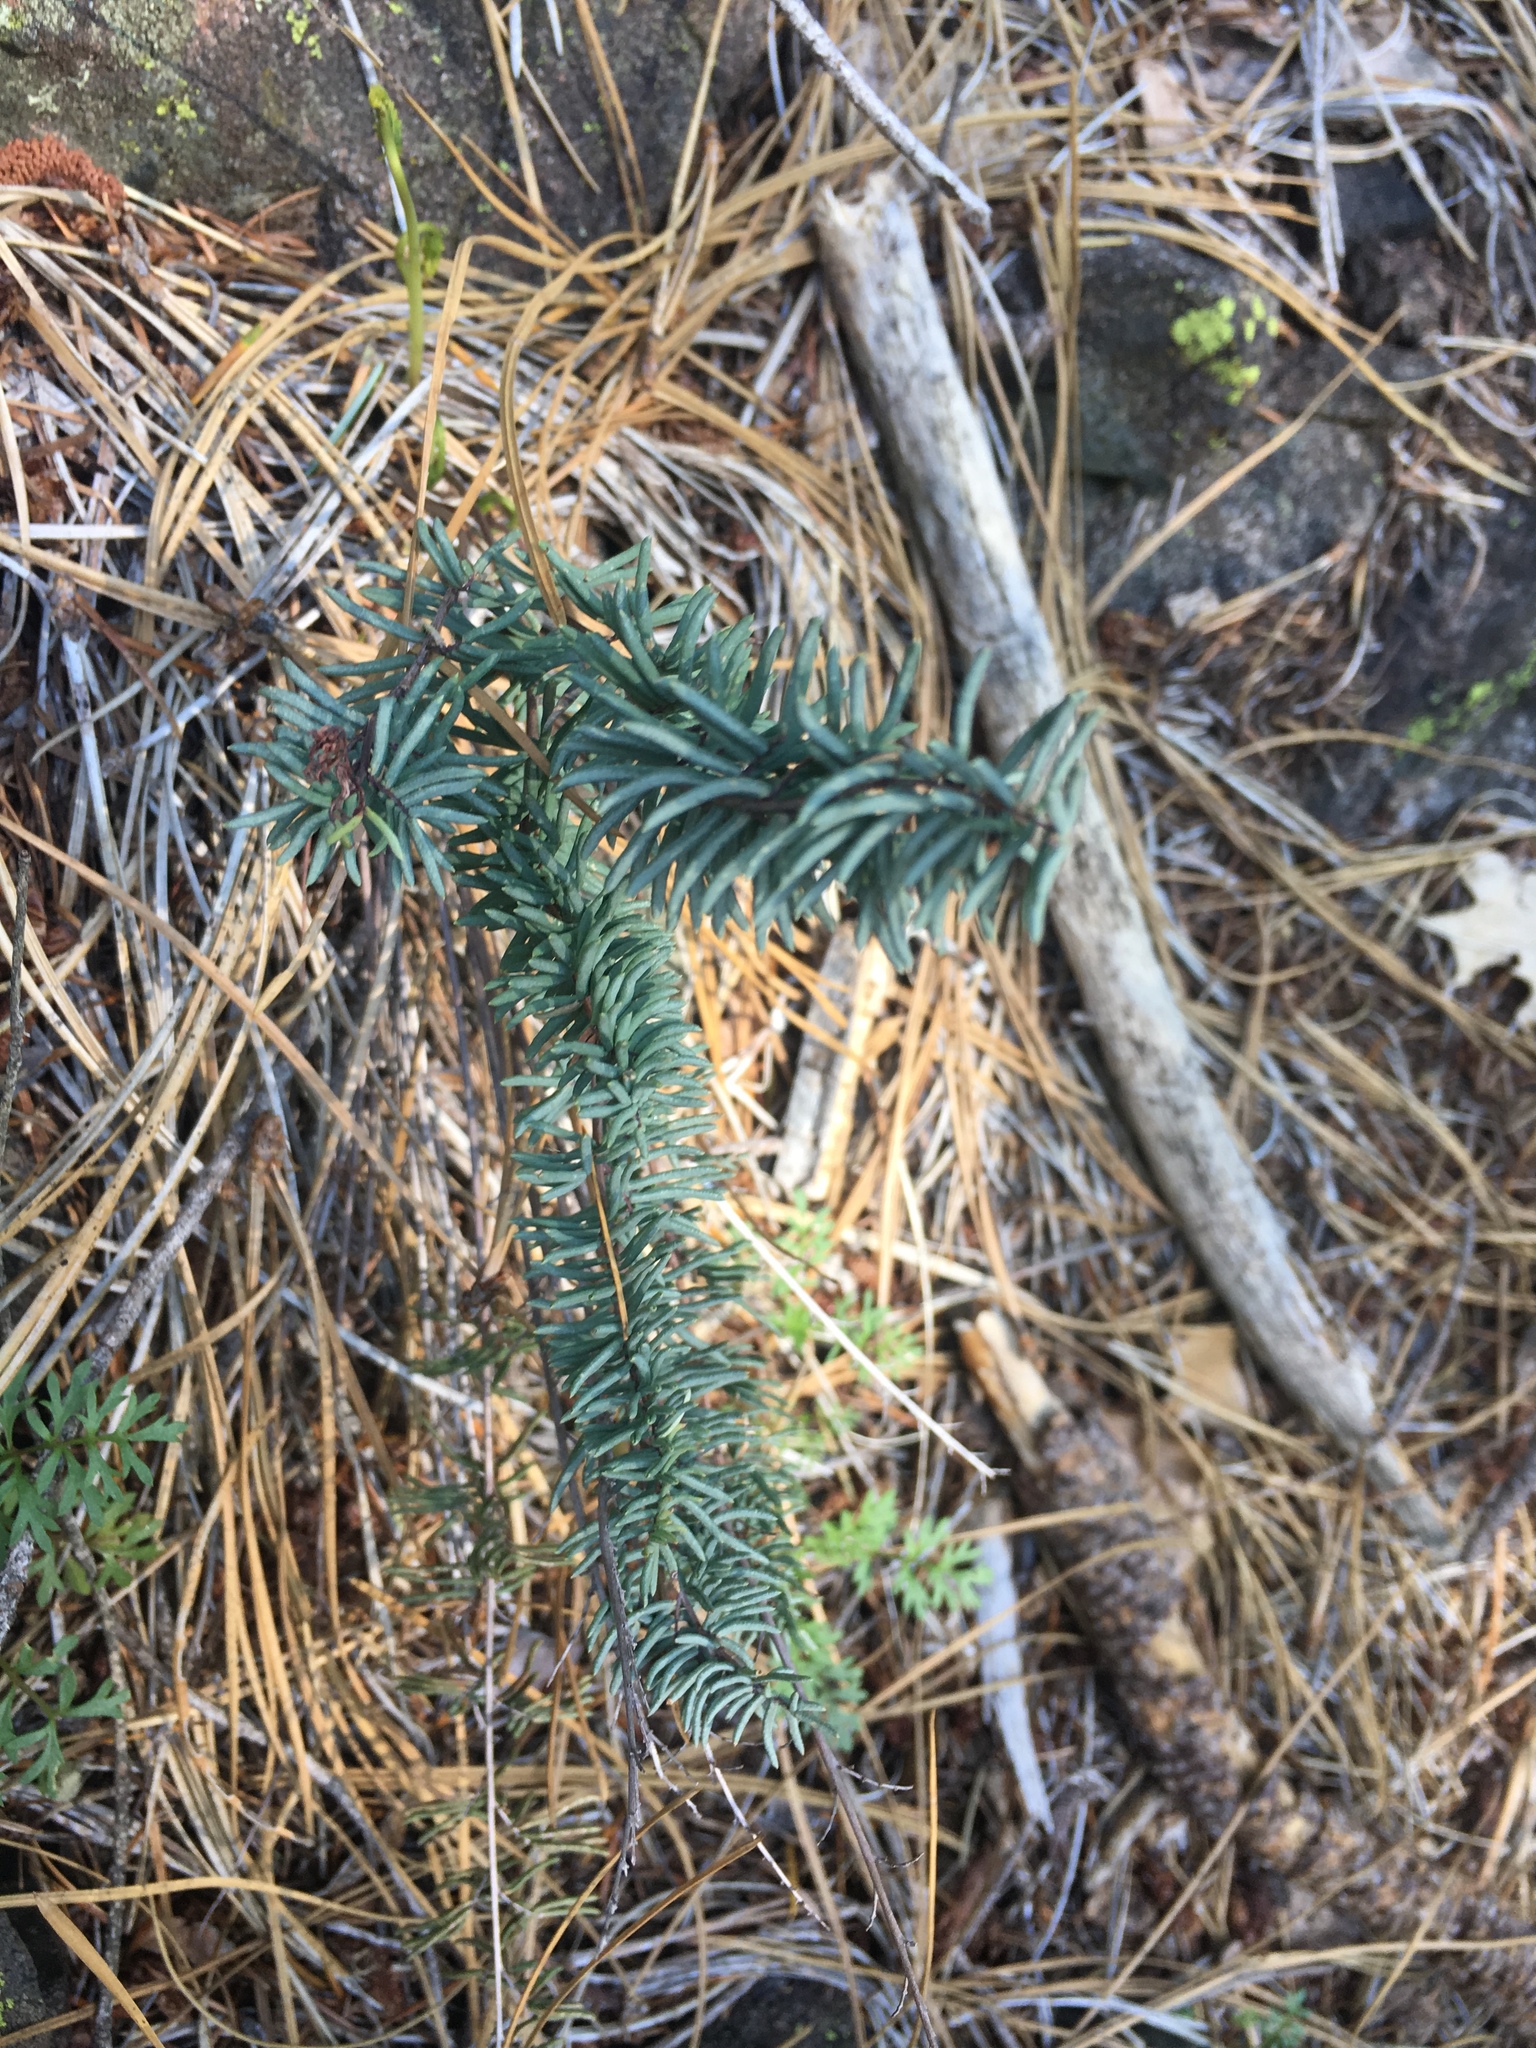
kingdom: Plantae
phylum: Tracheophyta
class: Polypodiopsida
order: Polypodiales
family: Pteridaceae
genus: Pellaea
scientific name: Pellaea brachyptera
